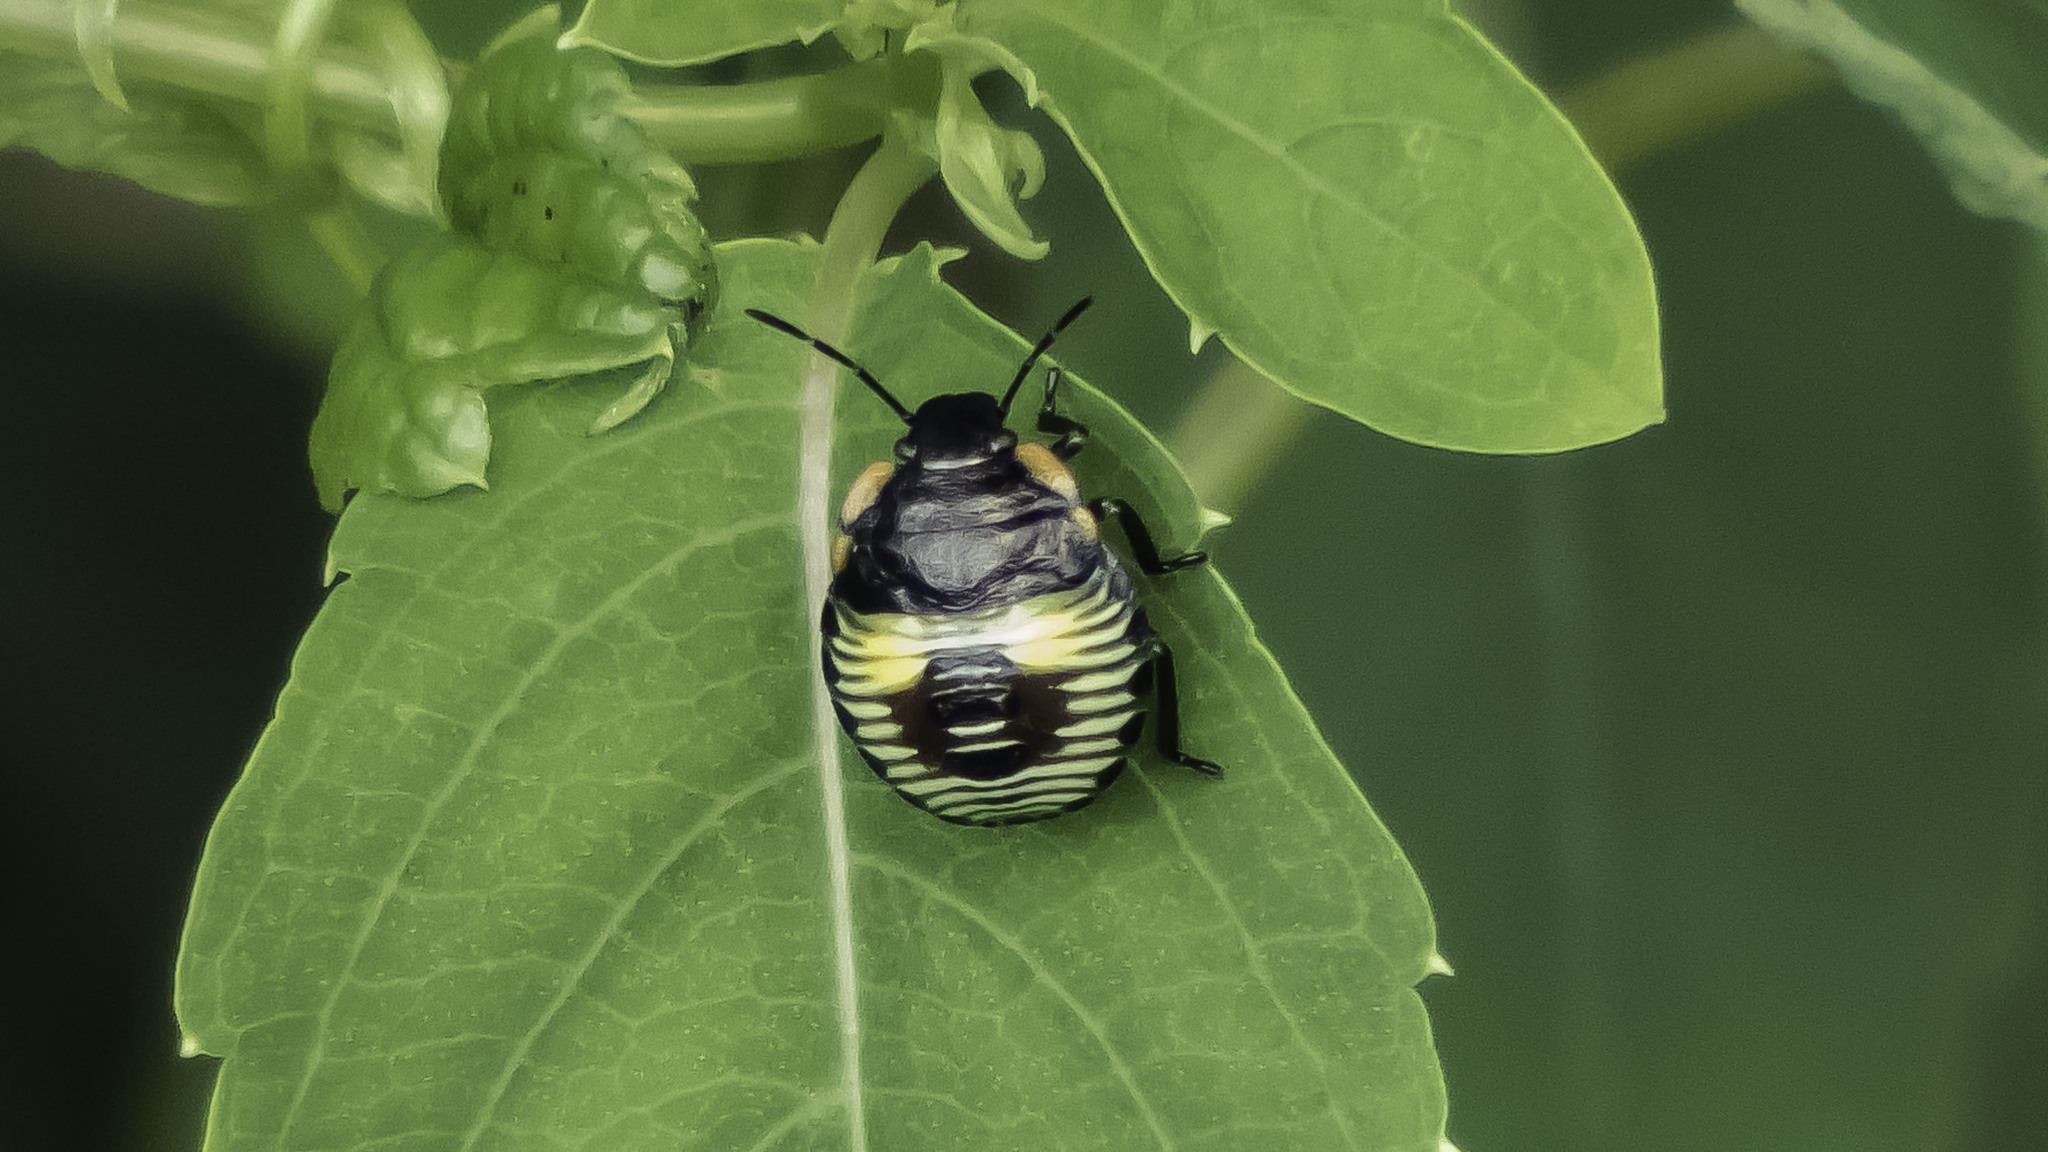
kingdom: Animalia
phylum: Arthropoda
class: Insecta
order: Hemiptera
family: Pentatomidae
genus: Chinavia
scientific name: Chinavia hilaris
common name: Green stink bug
